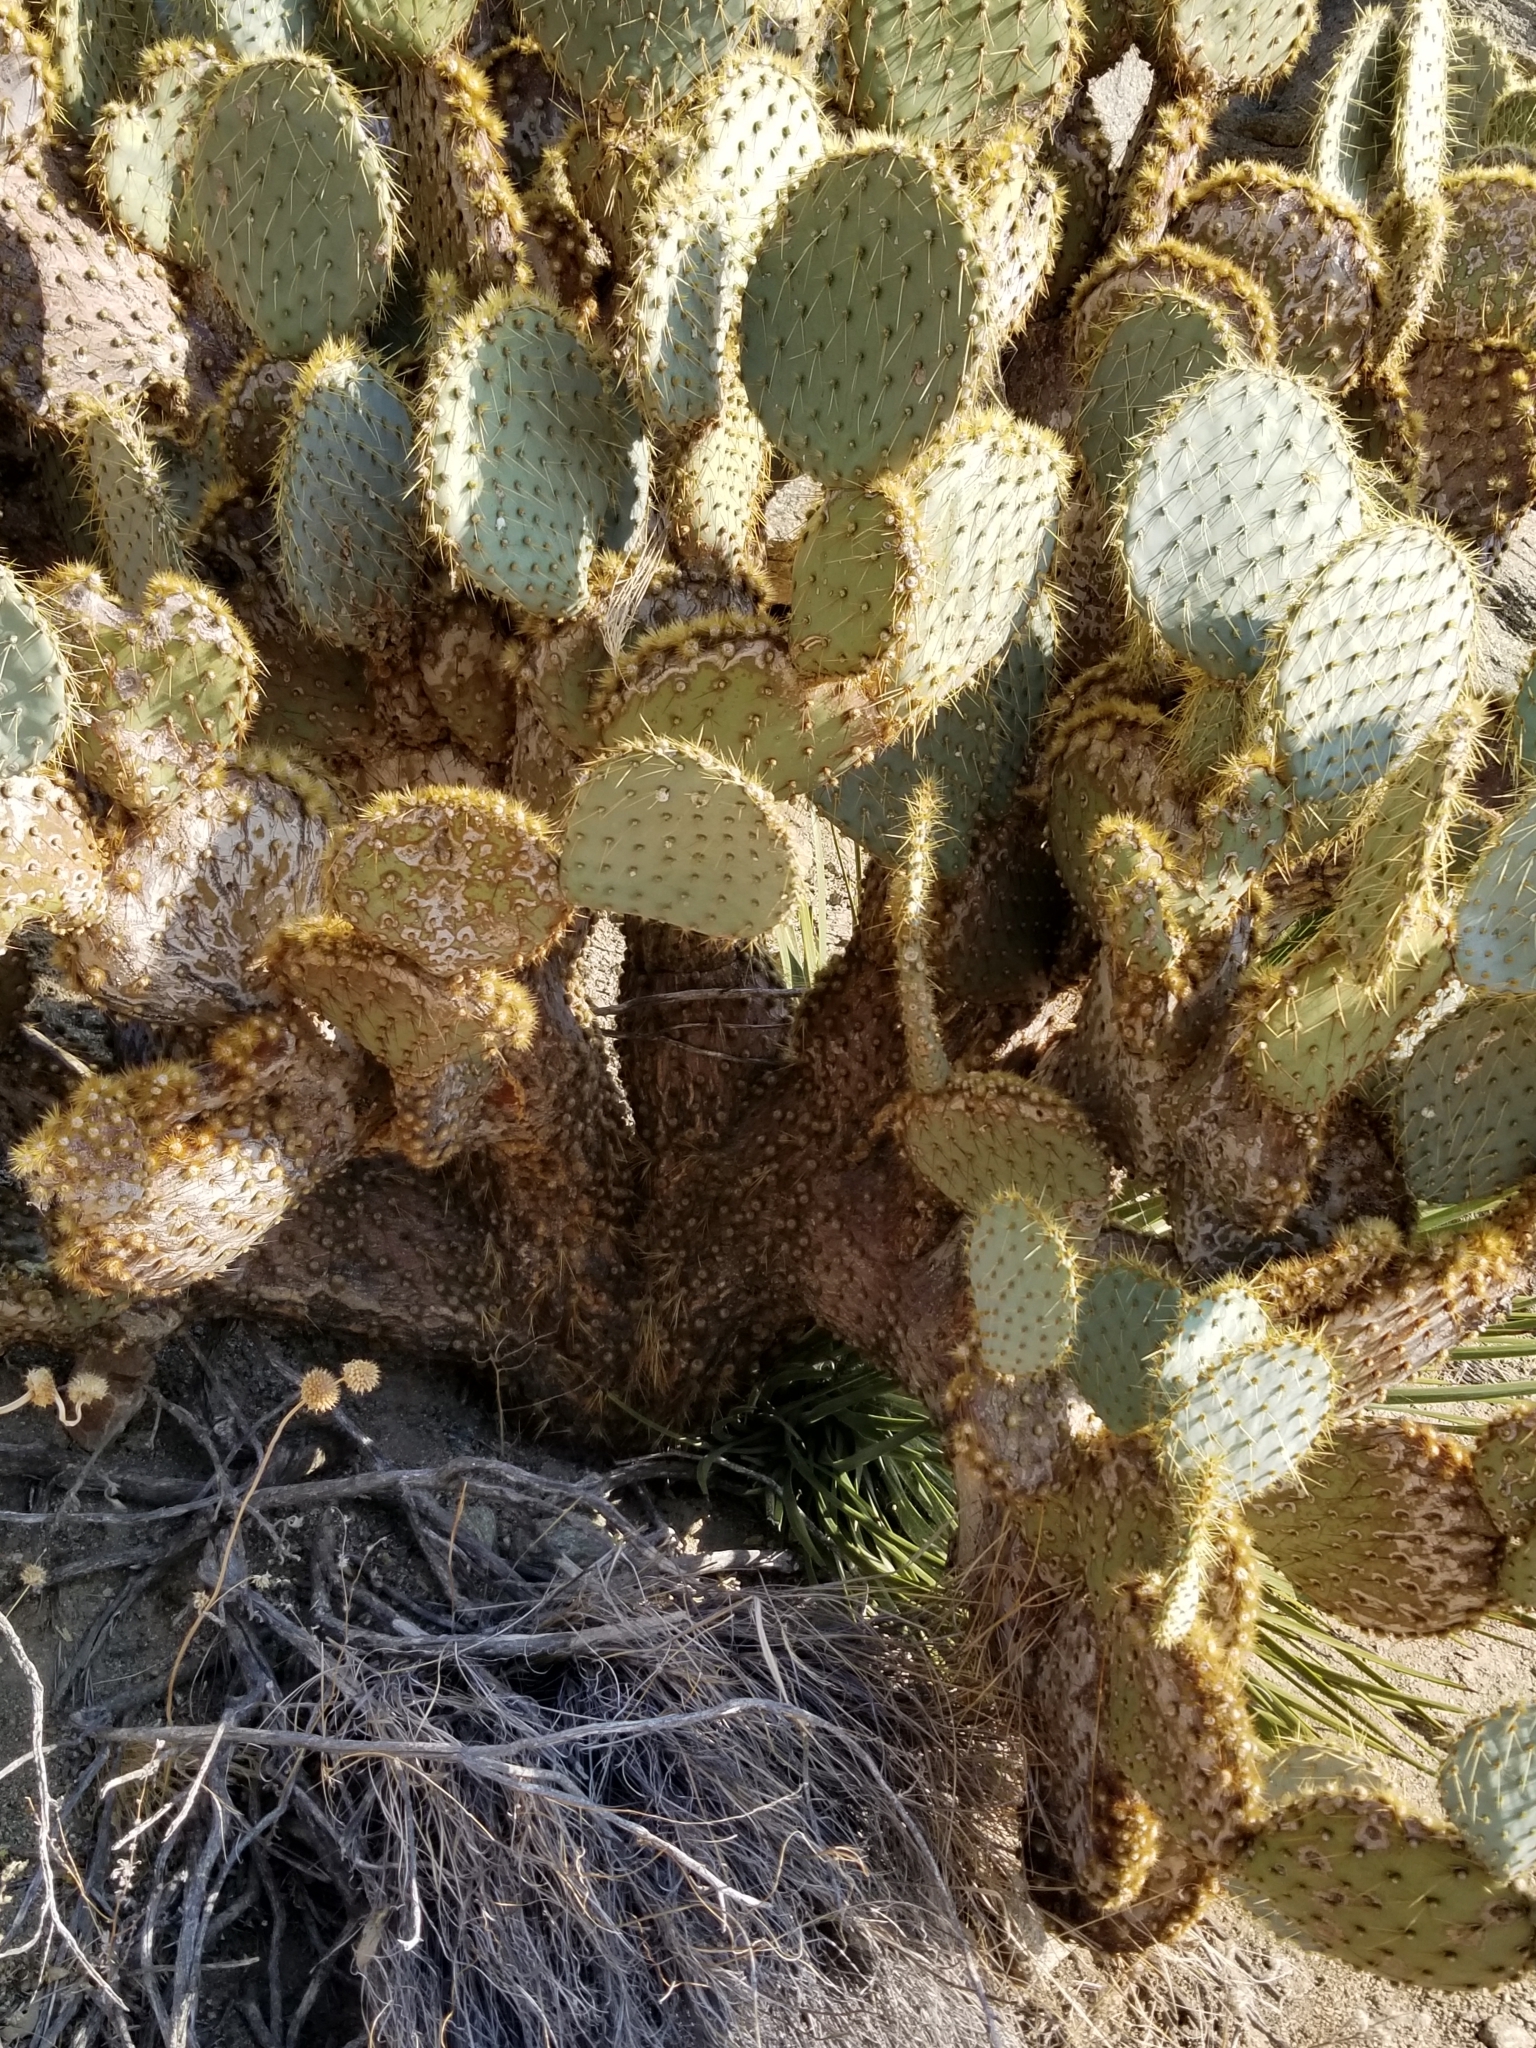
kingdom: Plantae
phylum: Tracheophyta
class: Magnoliopsida
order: Caryophyllales
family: Cactaceae
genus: Opuntia
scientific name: Opuntia chlorotica
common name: Dollar-joint prickly-pear
